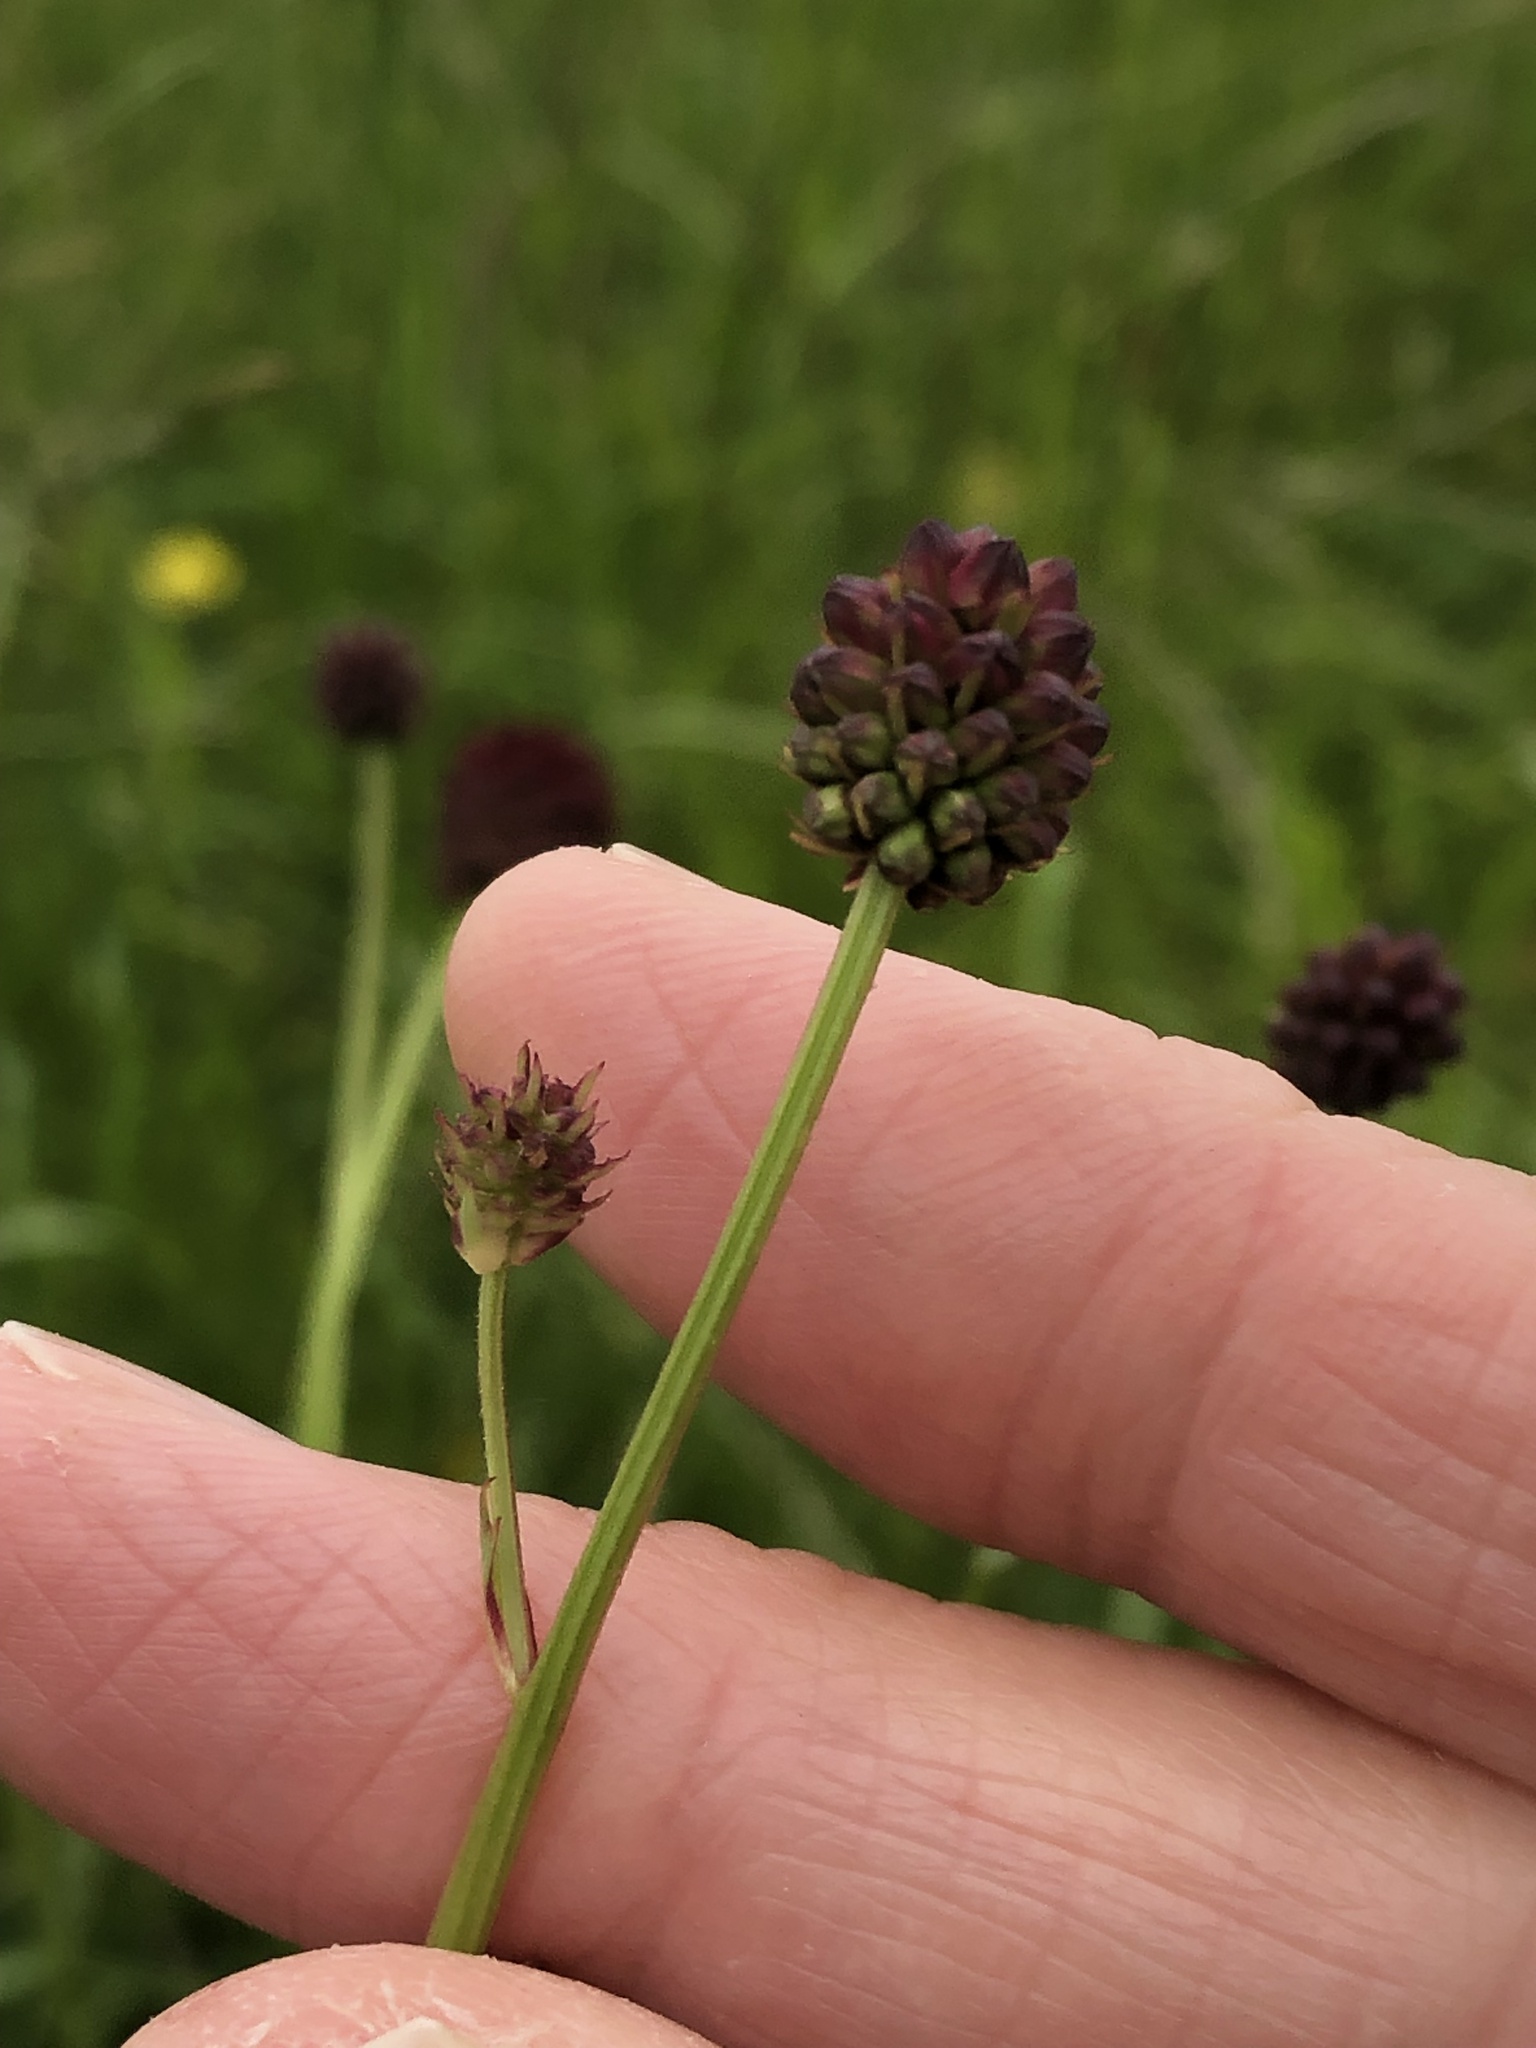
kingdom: Plantae
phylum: Tracheophyta
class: Magnoliopsida
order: Rosales
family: Rosaceae
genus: Sanguisorba
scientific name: Sanguisorba officinalis
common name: Great burnet
